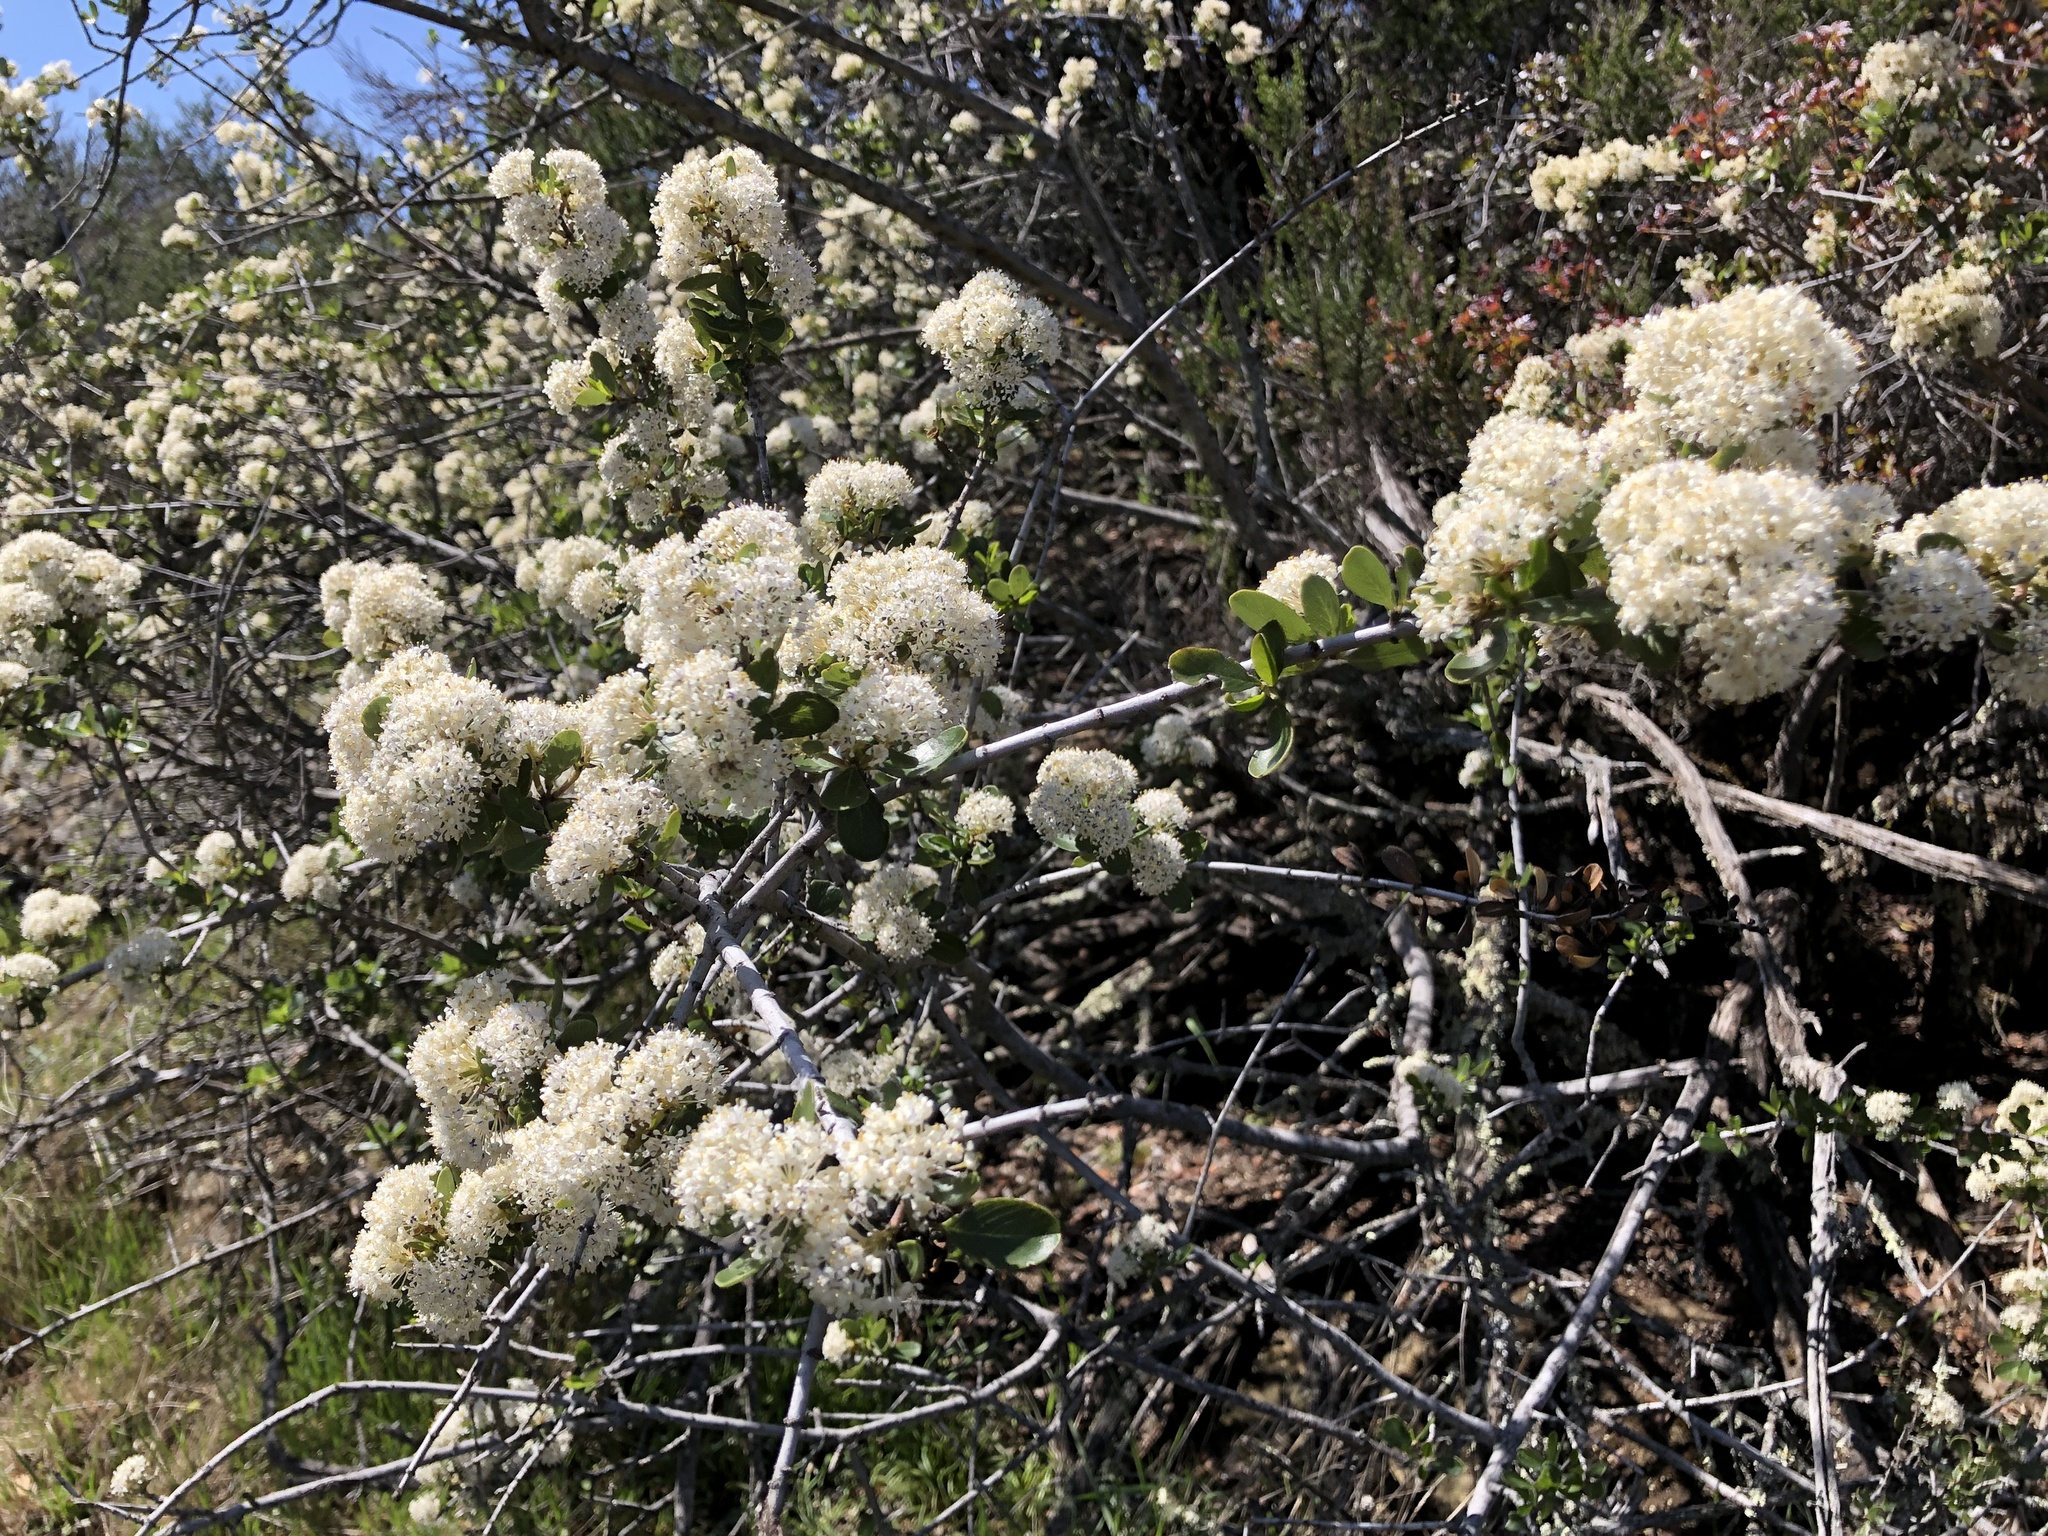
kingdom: Plantae
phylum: Tracheophyta
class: Magnoliopsida
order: Rosales
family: Rhamnaceae
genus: Ceanothus
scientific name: Ceanothus cuneatus
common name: Cuneate ceanothus
